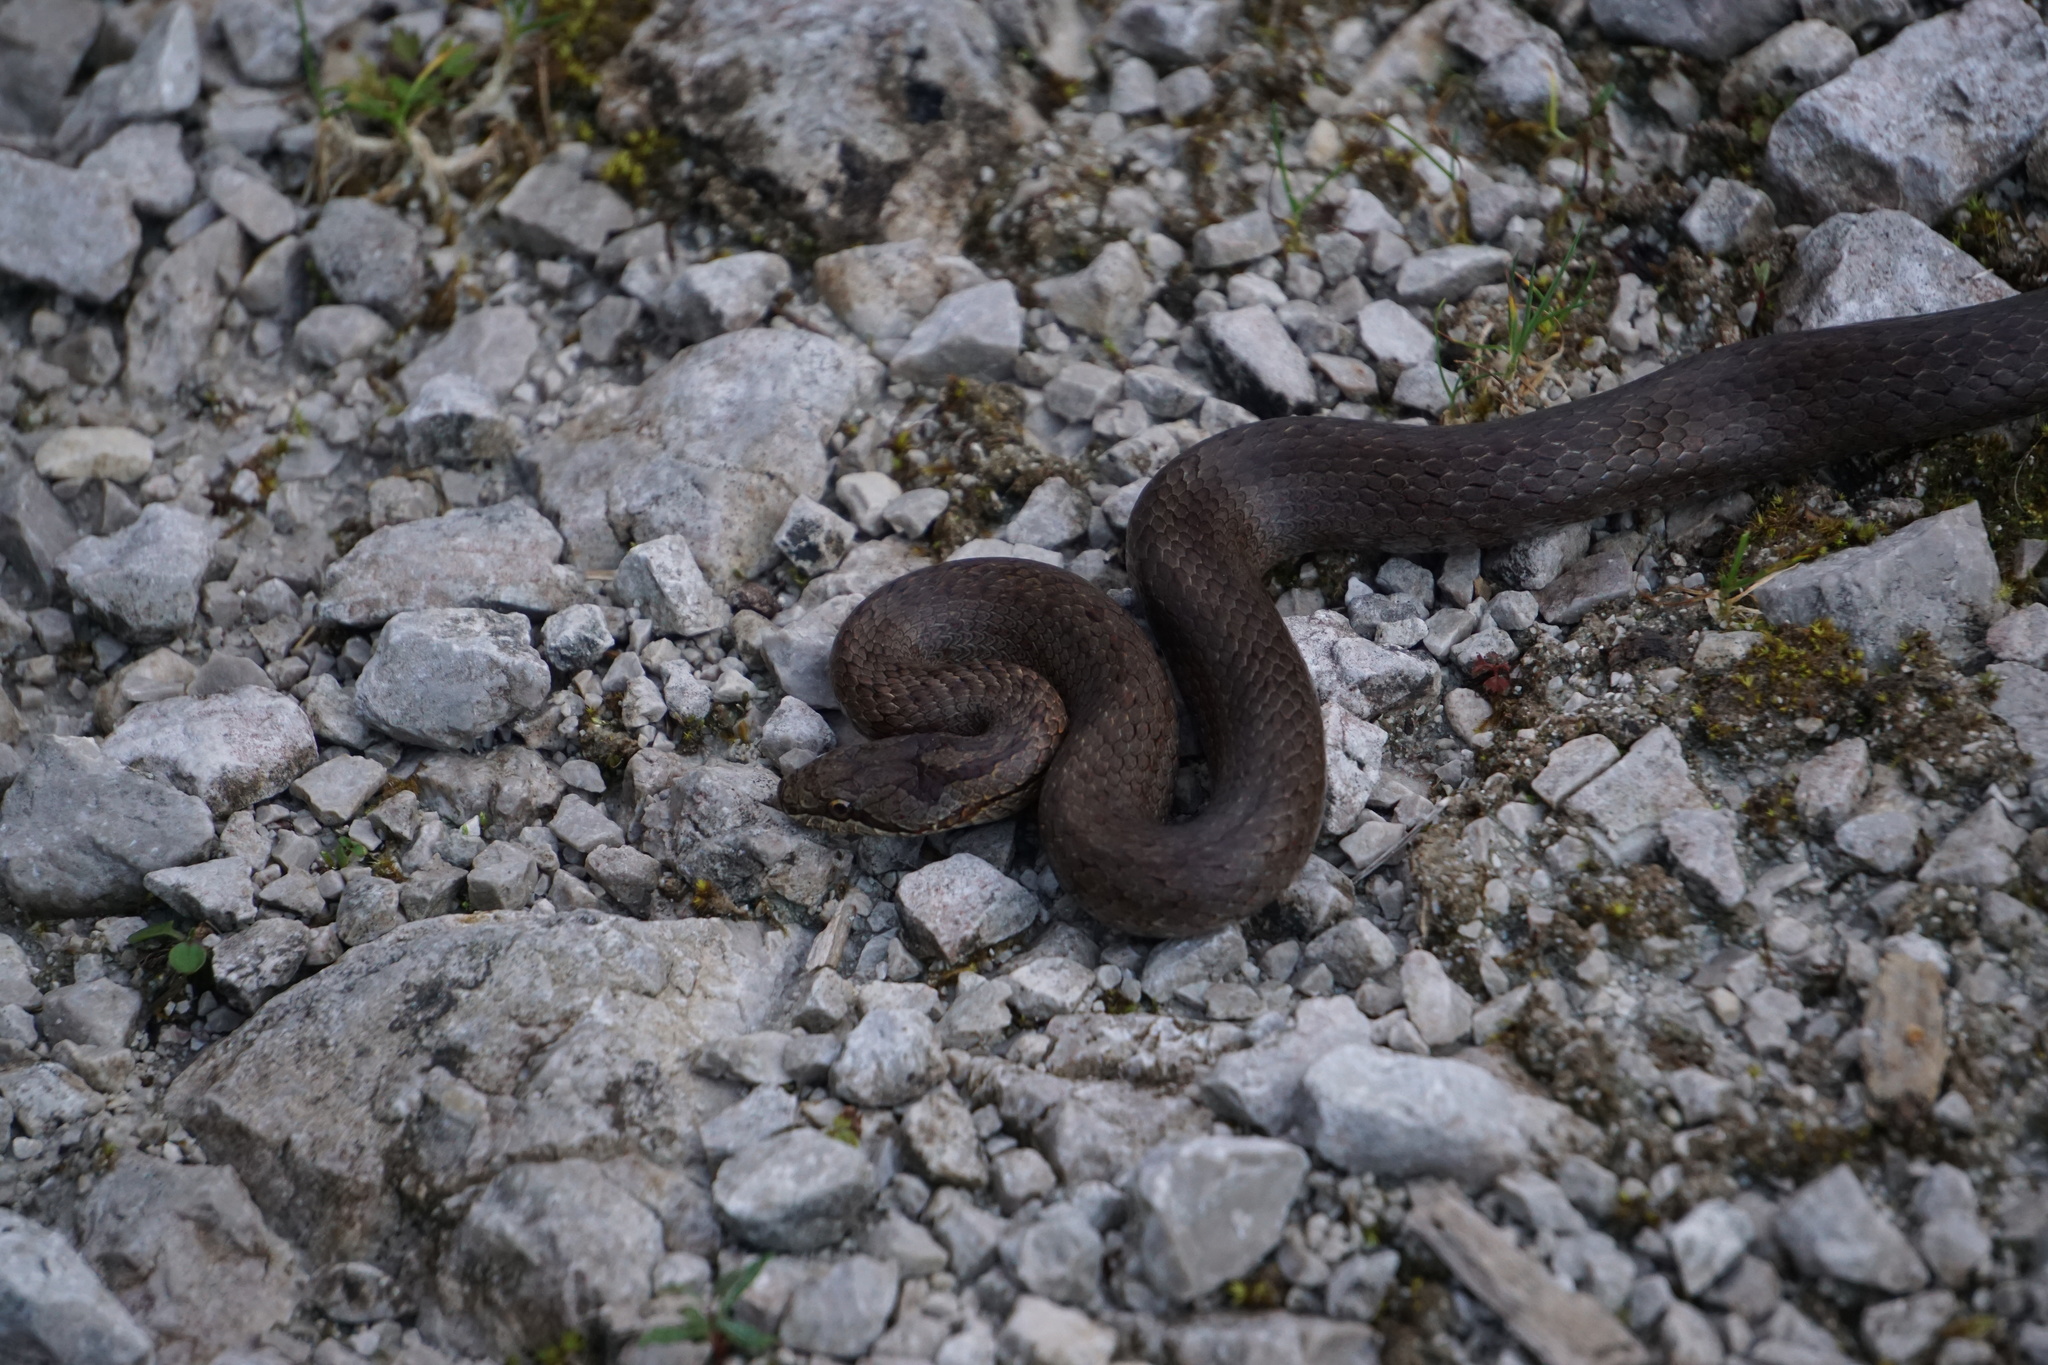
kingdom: Animalia
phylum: Chordata
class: Squamata
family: Colubridae
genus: Coronella
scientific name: Coronella austriaca
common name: Smooth snake
